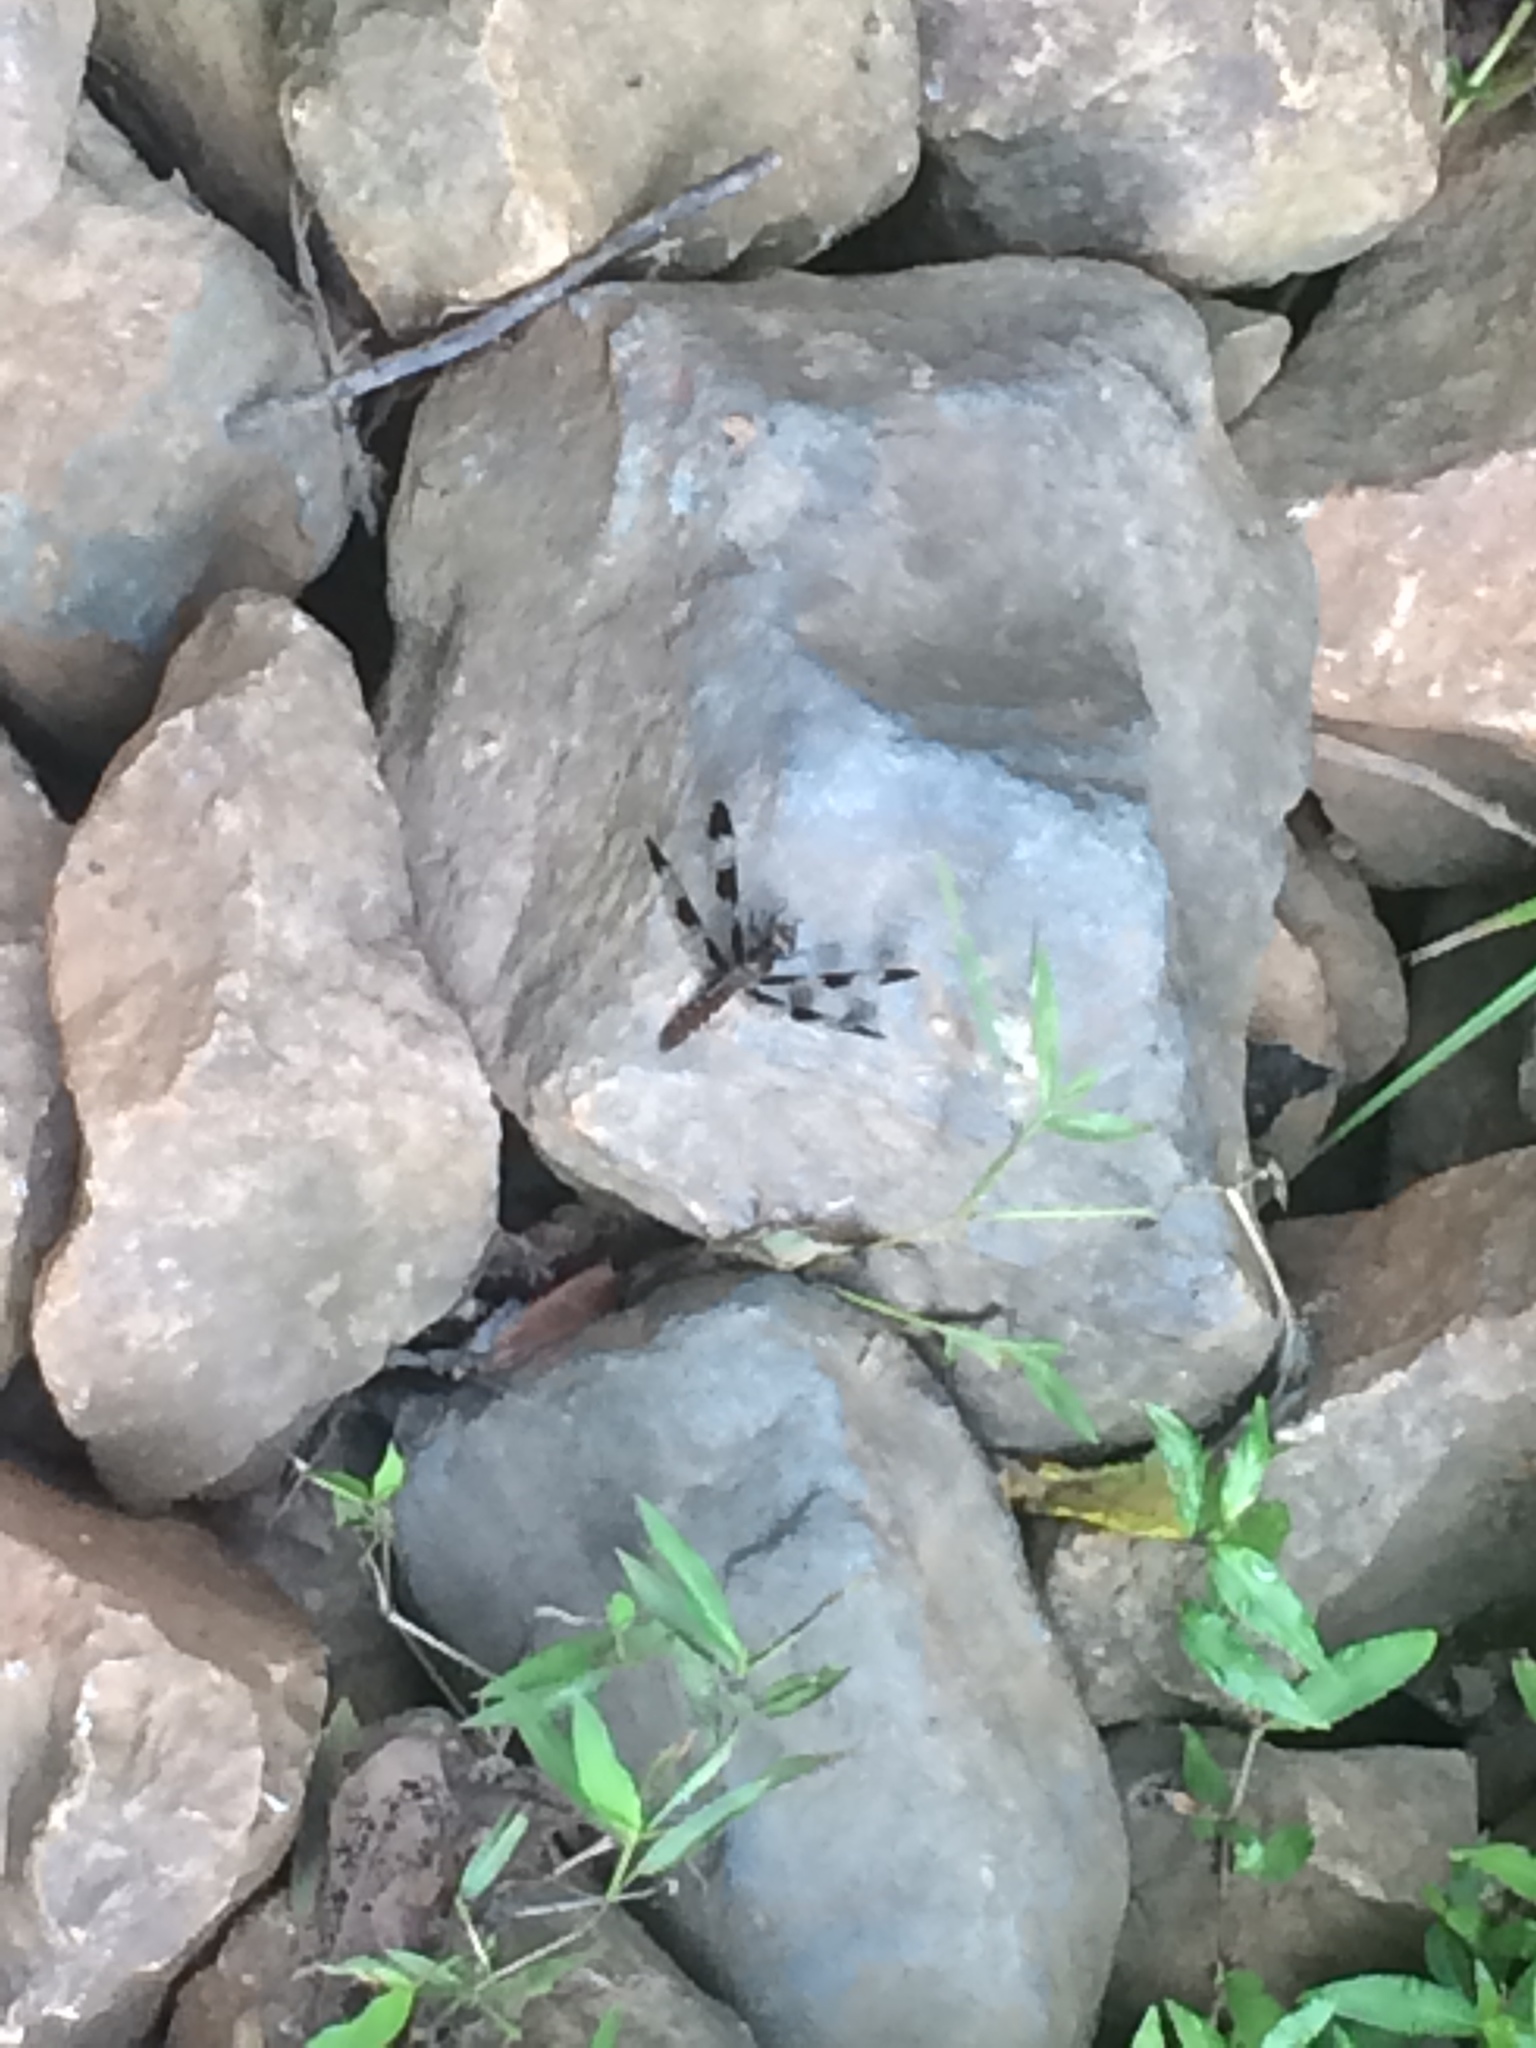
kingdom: Animalia
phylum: Arthropoda
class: Insecta
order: Odonata
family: Libellulidae
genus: Plathemis
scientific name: Plathemis lydia
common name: Common whitetail
